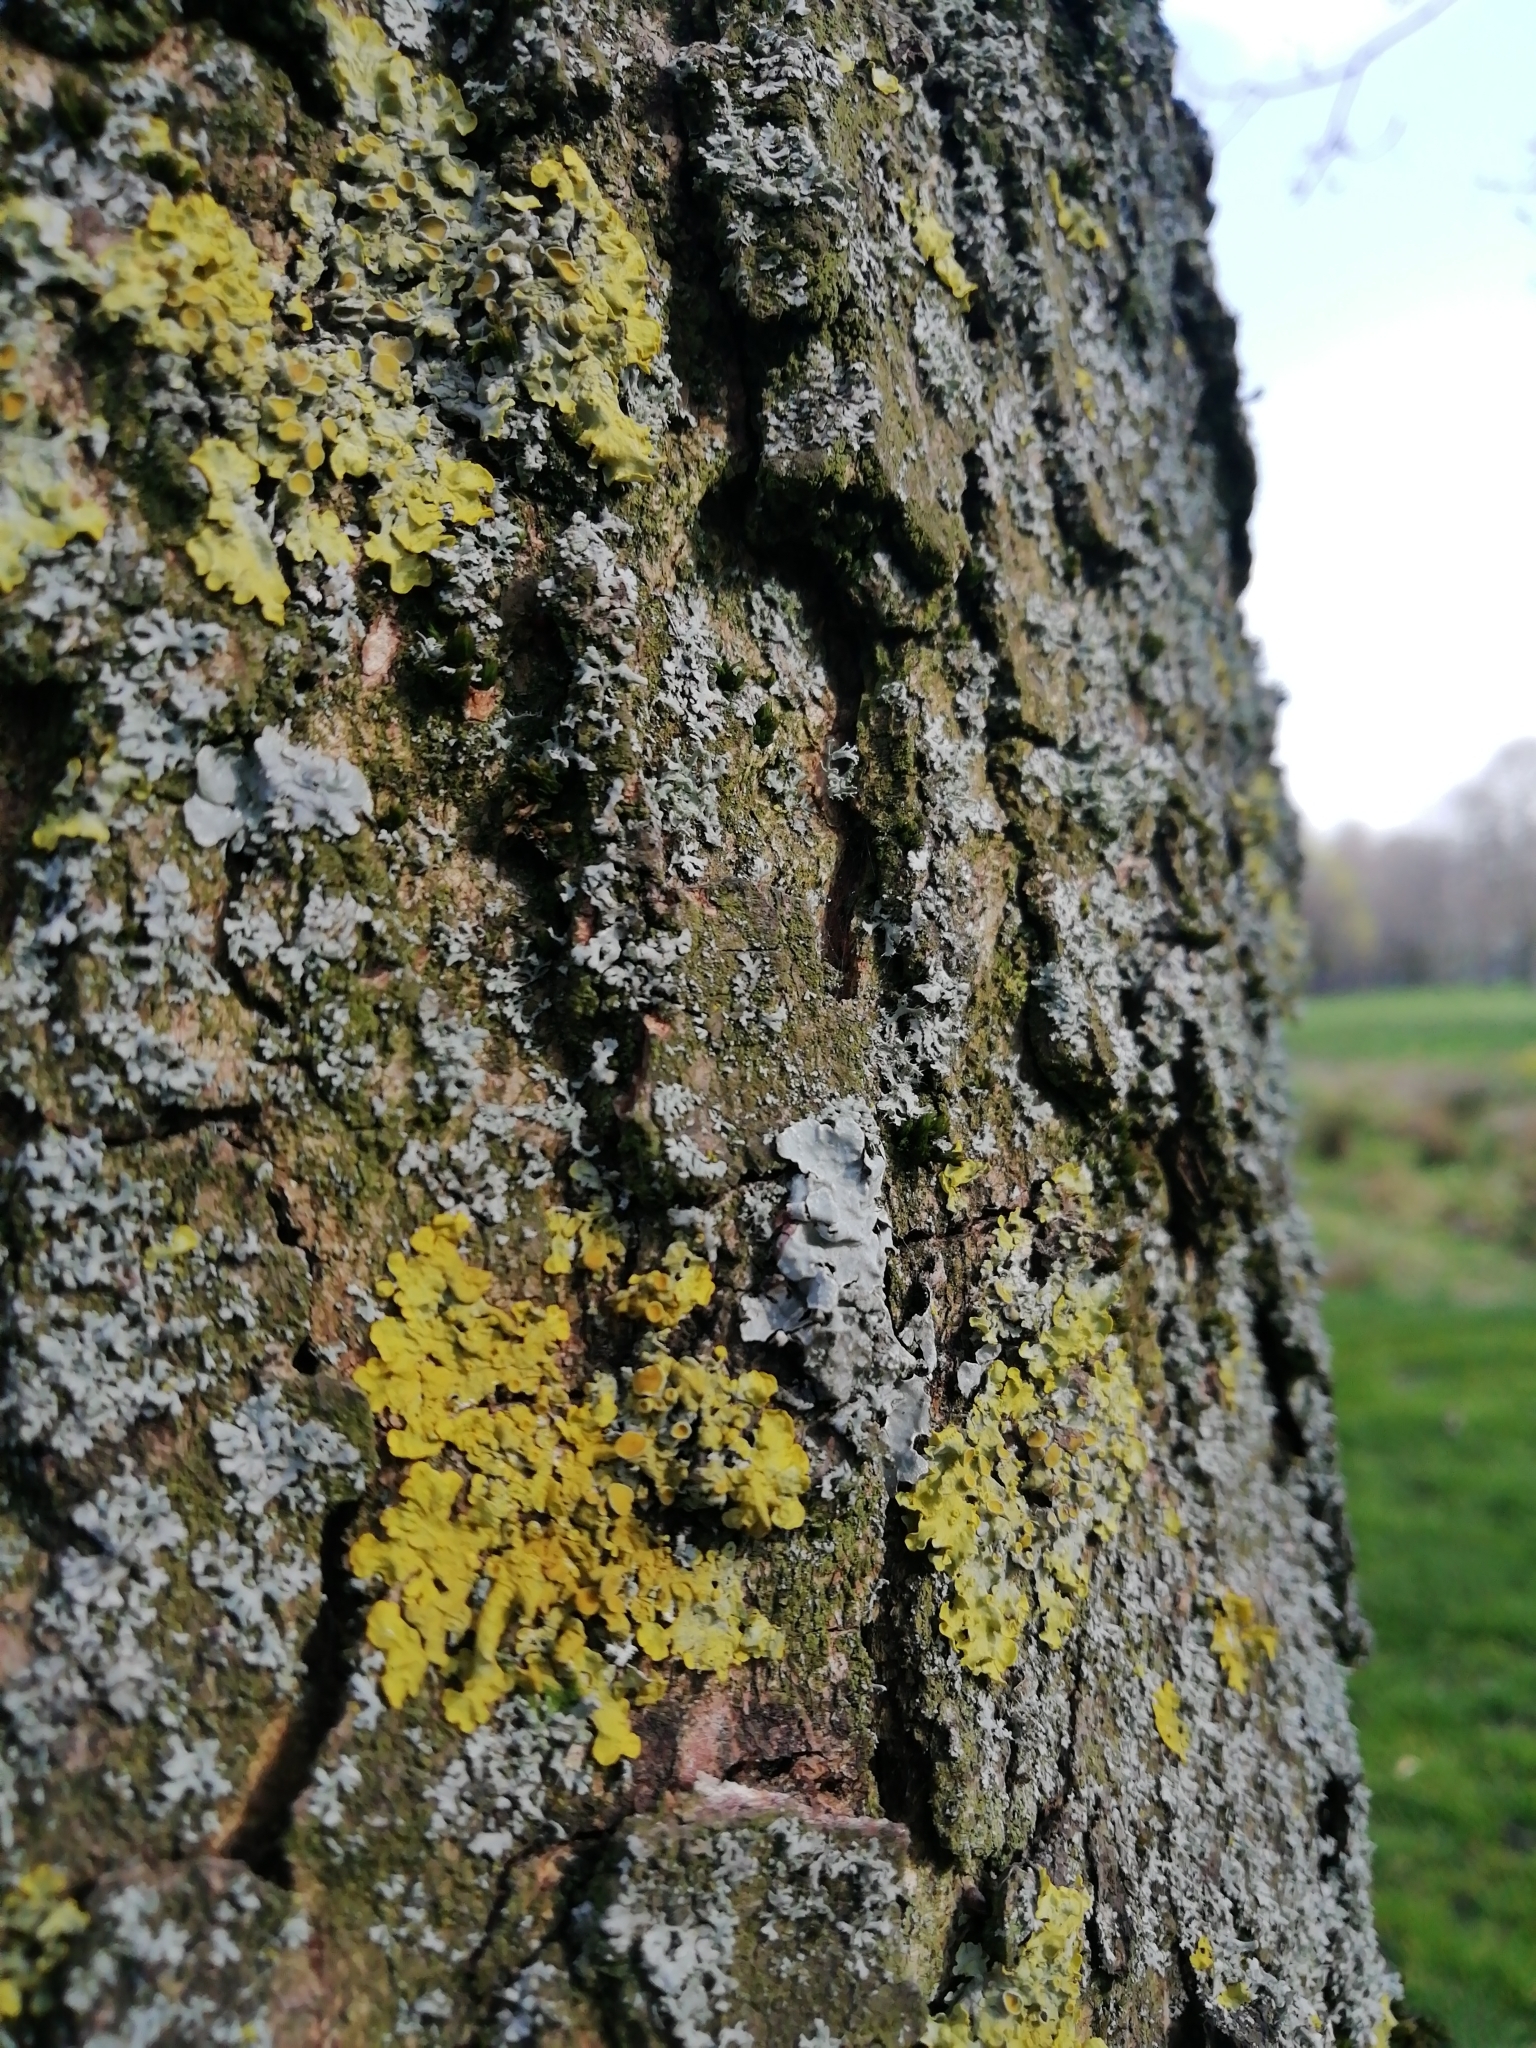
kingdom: Fungi
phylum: Ascomycota
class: Lecanoromycetes
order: Teloschistales
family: Teloschistaceae
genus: Xanthoria
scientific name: Xanthoria parietina
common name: Common orange lichen
